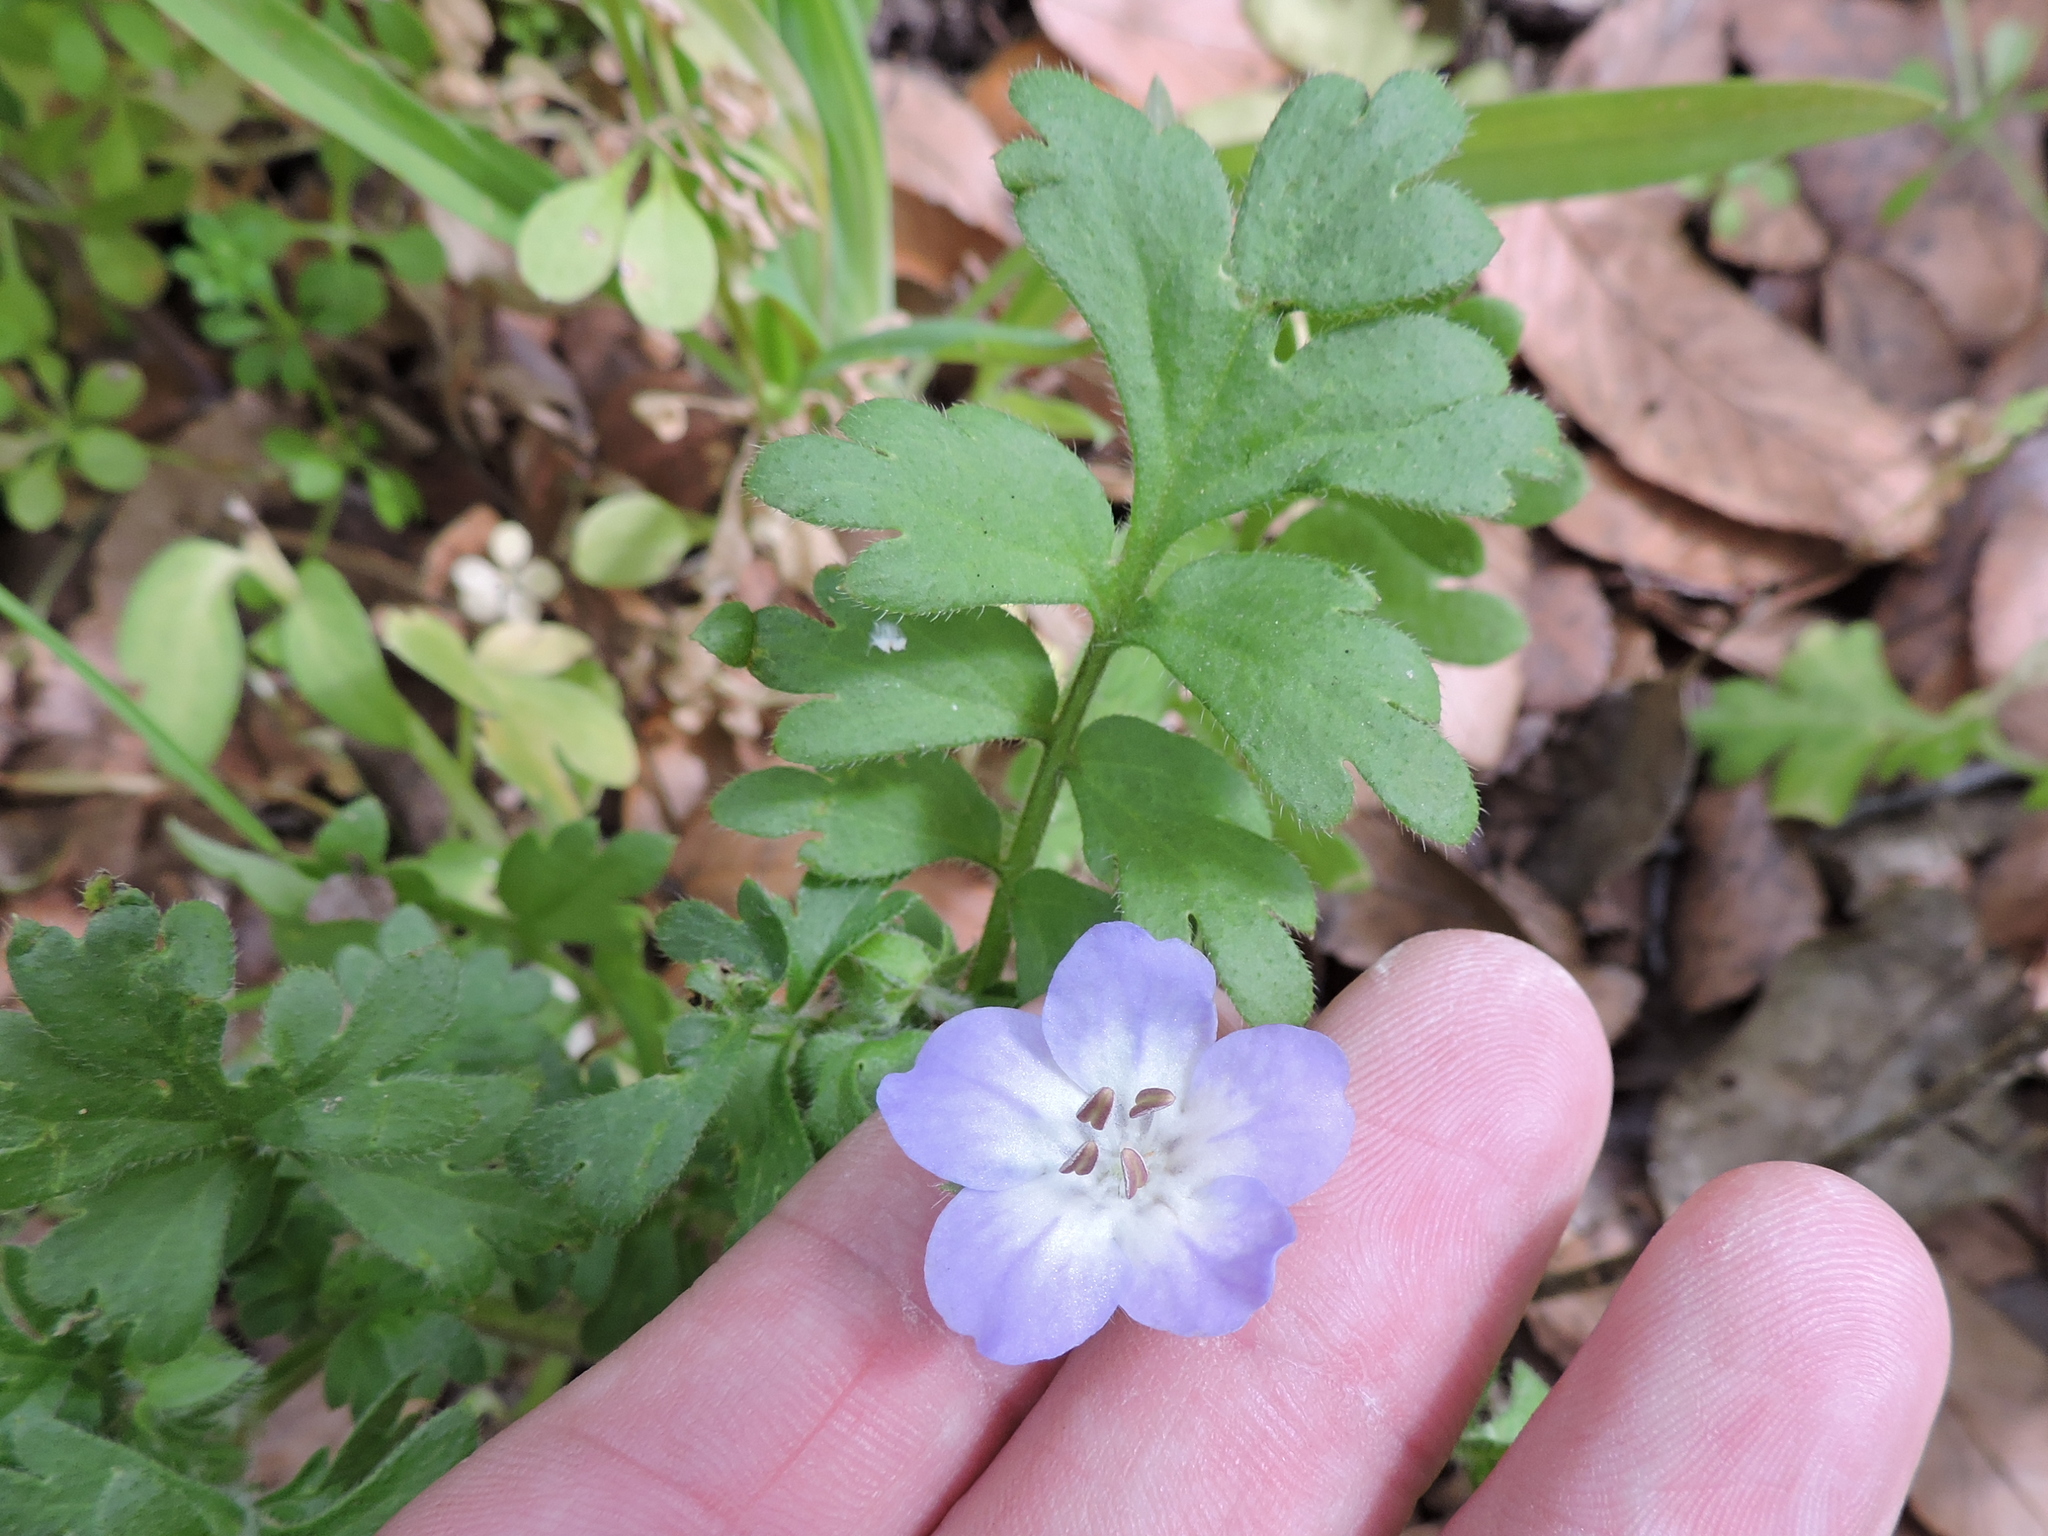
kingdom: Plantae
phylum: Tracheophyta
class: Magnoliopsida
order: Boraginales
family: Hydrophyllaceae
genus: Nemophila
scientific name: Nemophila phacelioides
